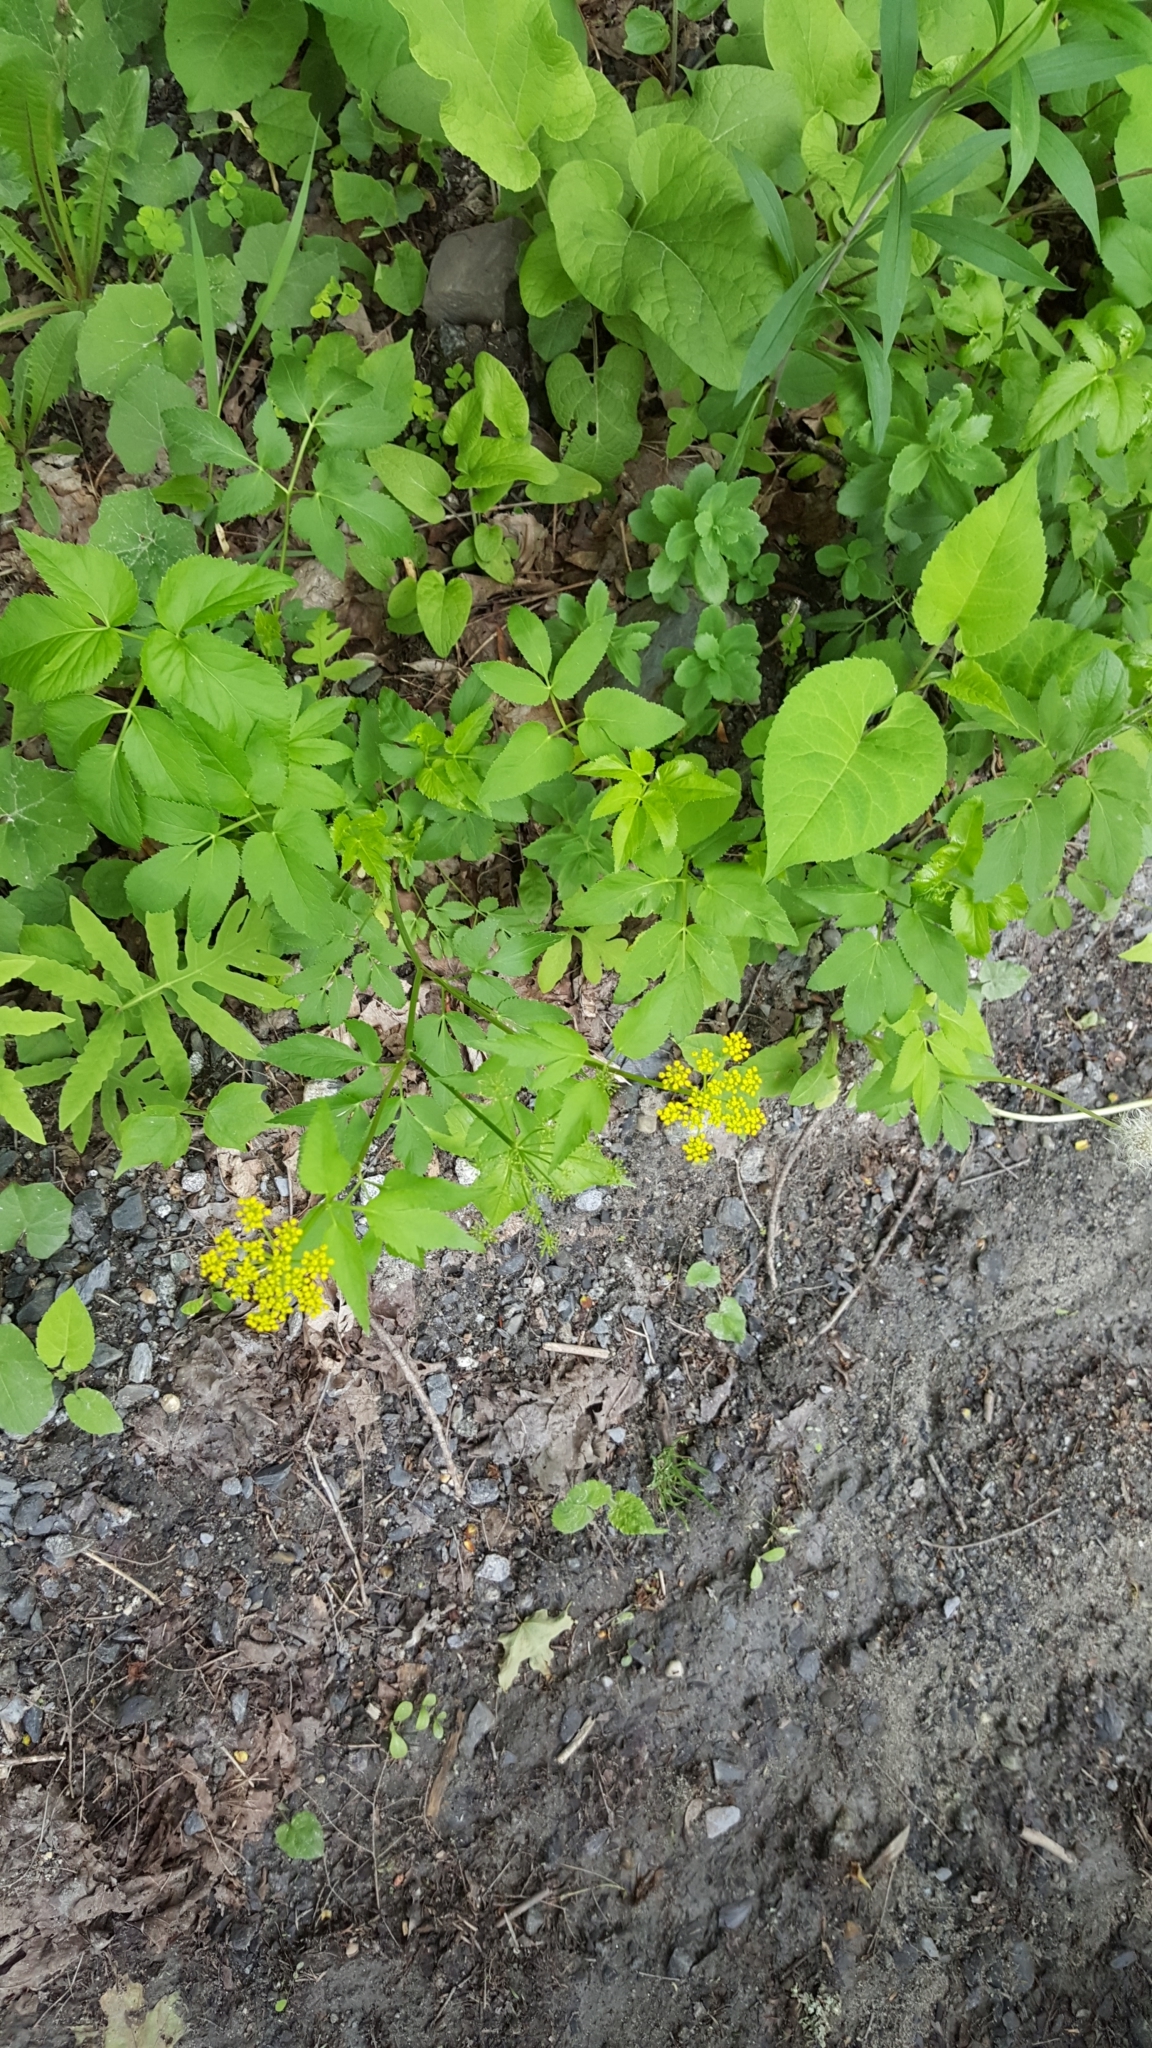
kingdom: Plantae
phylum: Tracheophyta
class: Magnoliopsida
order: Apiales
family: Apiaceae
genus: Zizia
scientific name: Zizia aurea
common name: Golden alexanders
